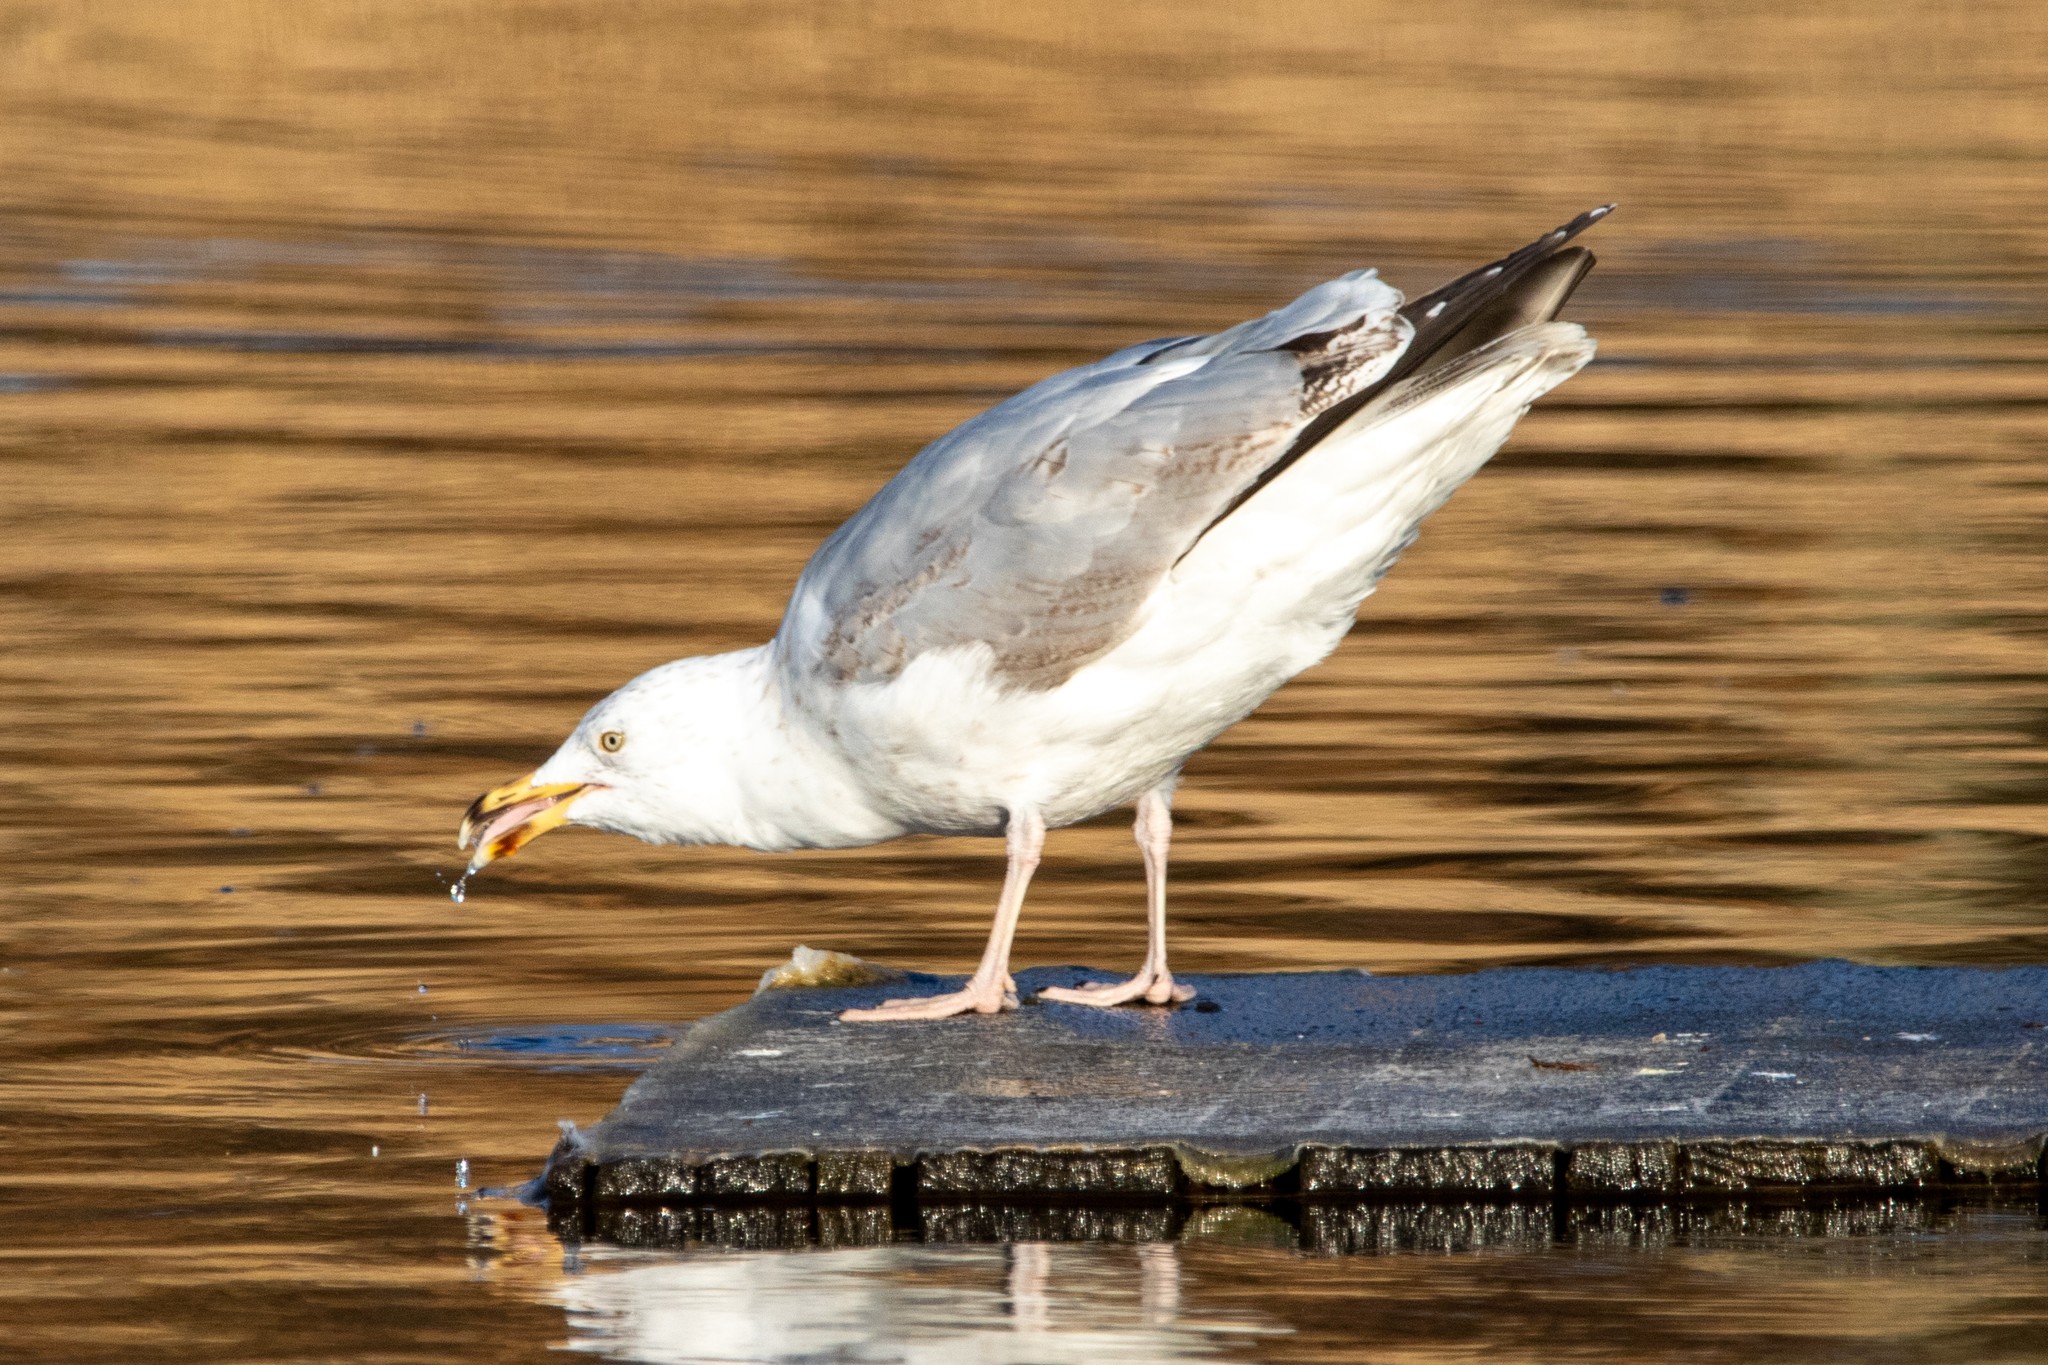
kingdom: Animalia
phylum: Chordata
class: Aves
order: Charadriiformes
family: Laridae
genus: Larus
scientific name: Larus argentatus
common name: Herring gull
